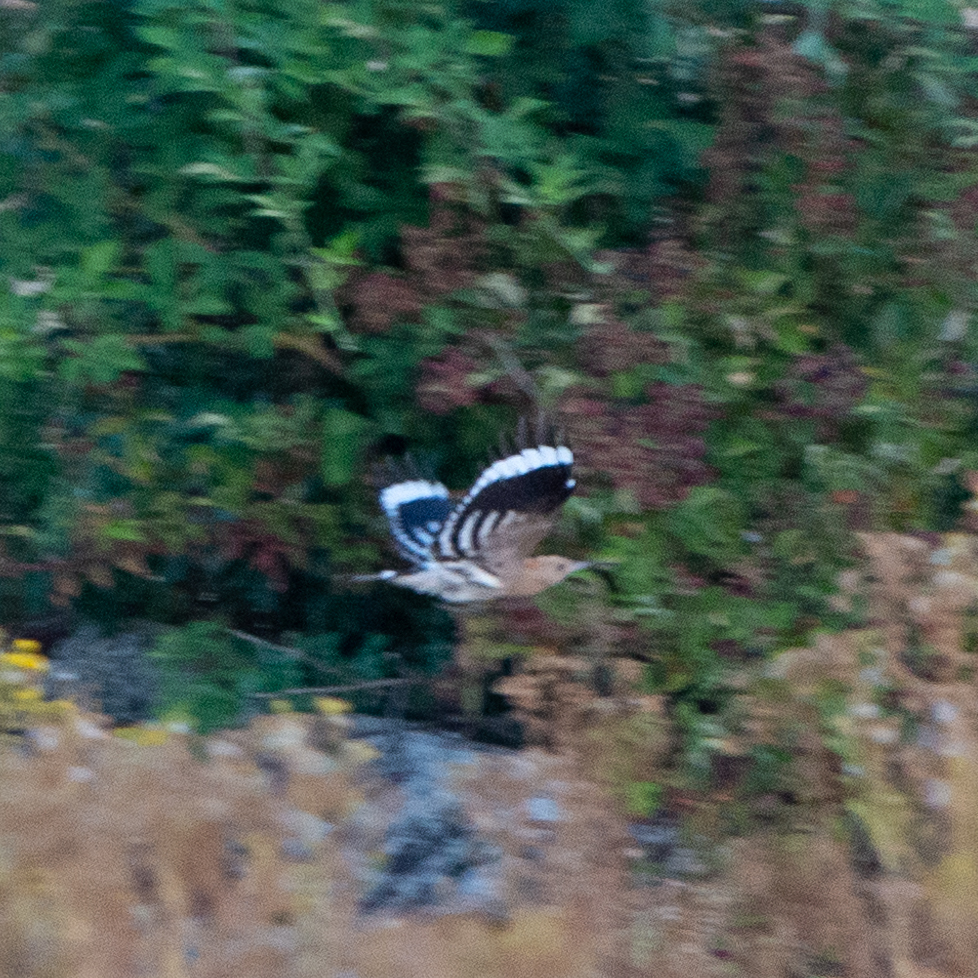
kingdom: Animalia
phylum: Chordata
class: Aves
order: Bucerotiformes
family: Upupidae
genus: Upupa
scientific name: Upupa epops
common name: Eurasian hoopoe
